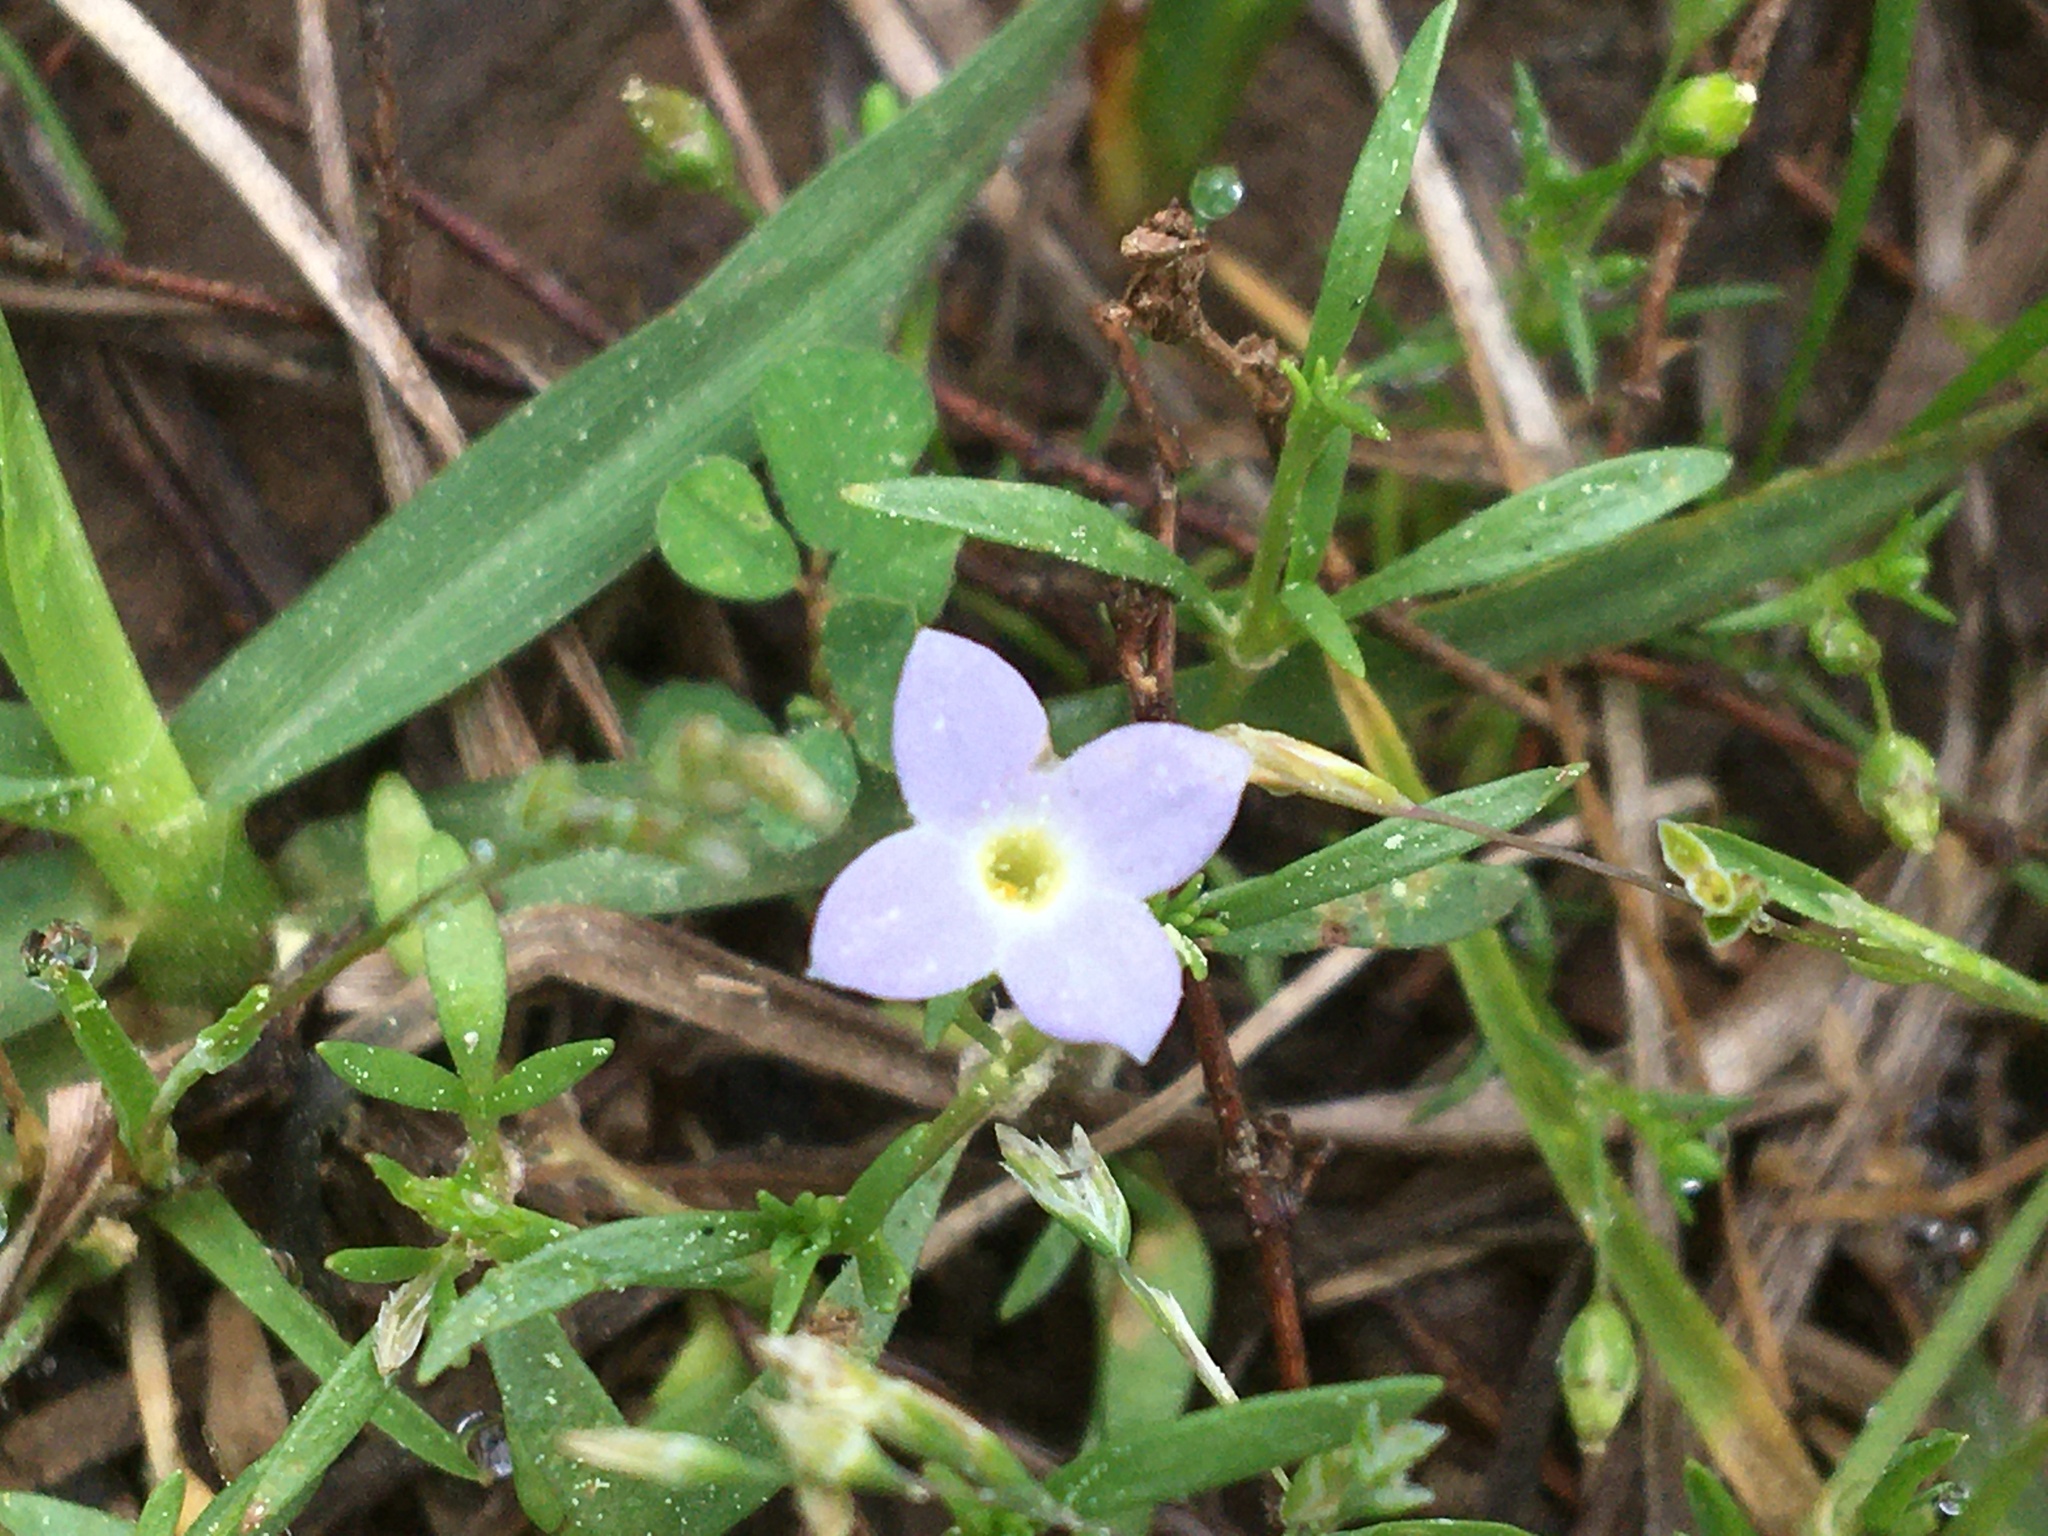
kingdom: Plantae
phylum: Tracheophyta
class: Magnoliopsida
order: Gentianales
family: Rubiaceae
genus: Houstonia
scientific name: Houstonia rosea
